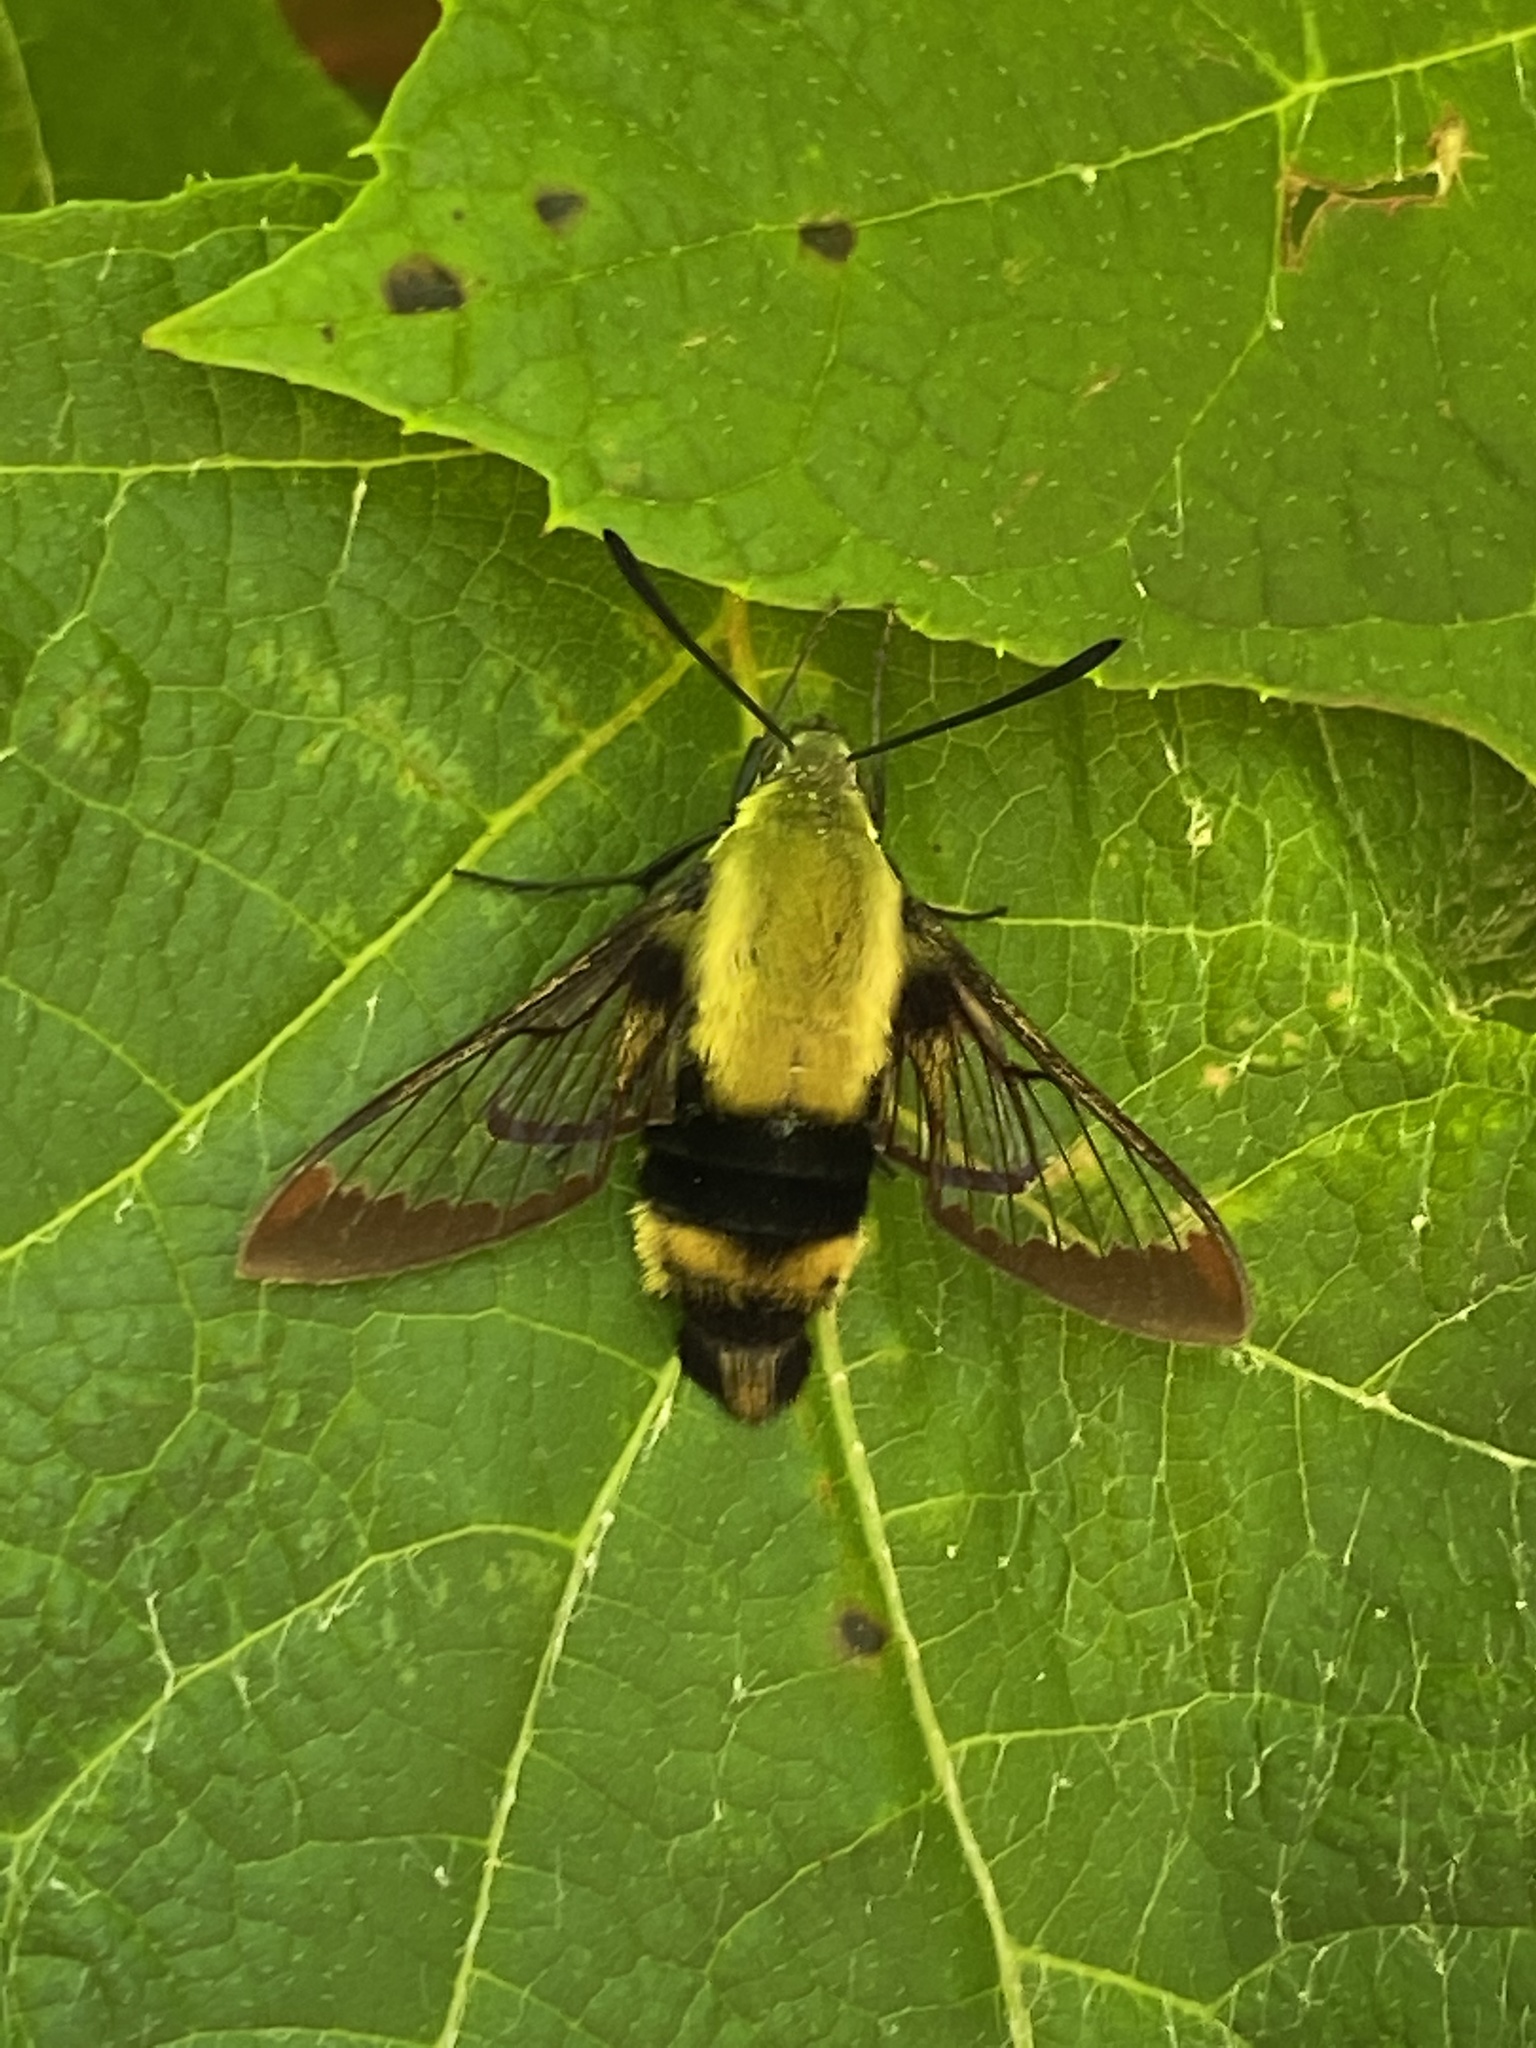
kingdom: Animalia
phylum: Arthropoda
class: Insecta
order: Lepidoptera
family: Sphingidae
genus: Hemaris
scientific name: Hemaris diffinis
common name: Bumblebee moth
